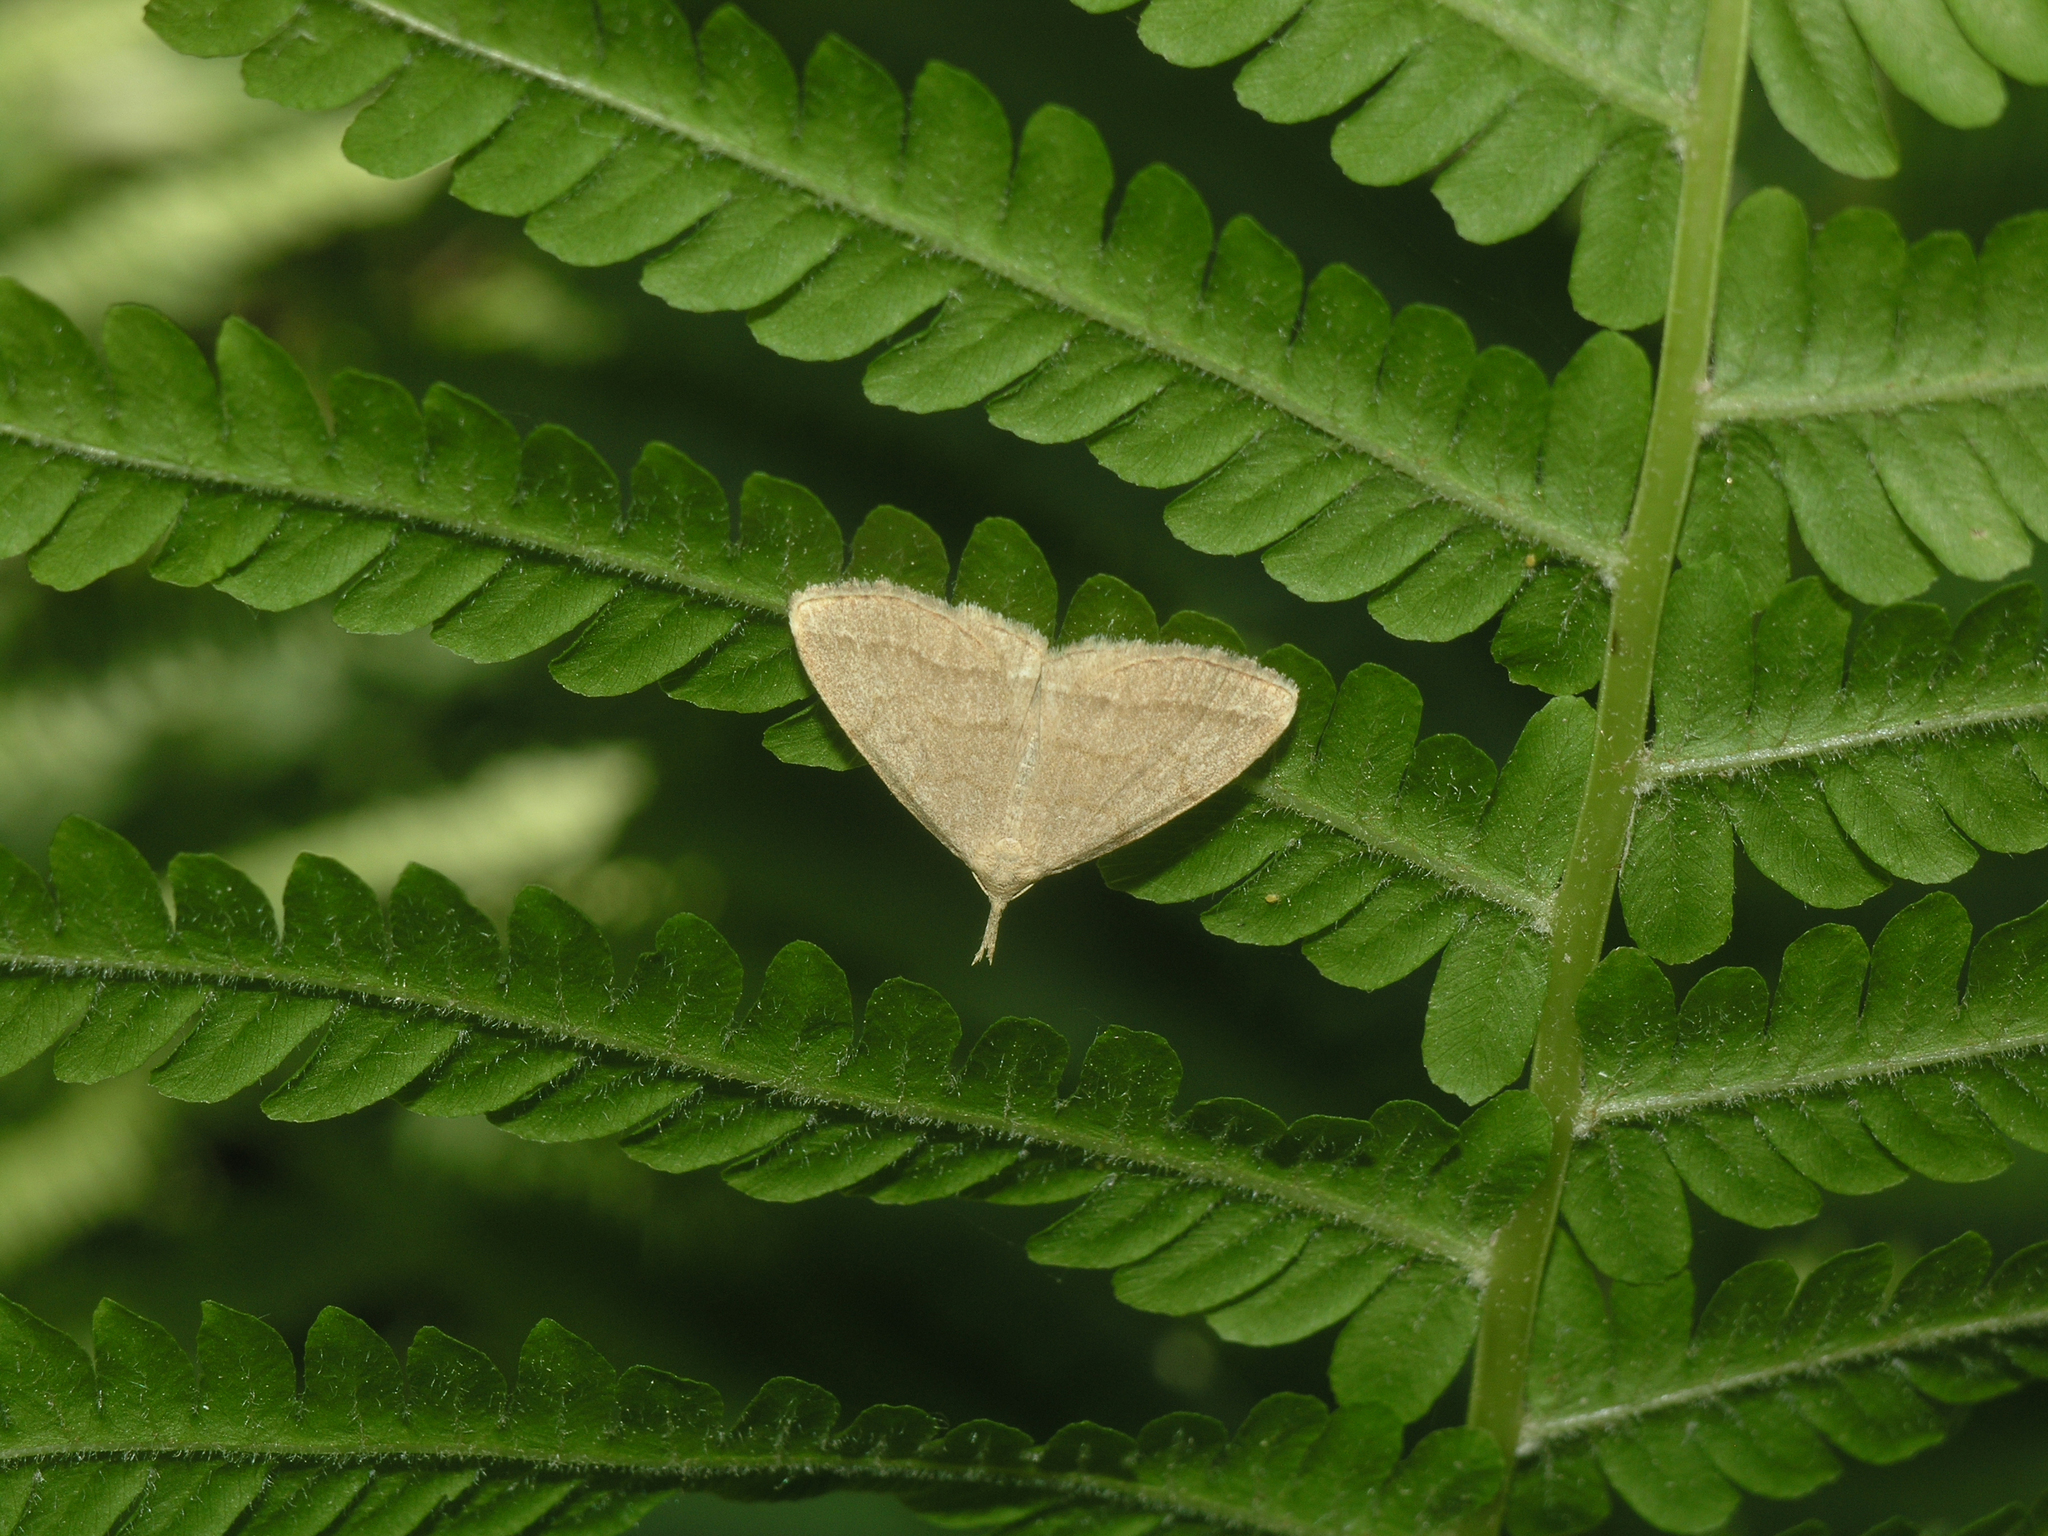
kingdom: Animalia
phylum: Arthropoda
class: Insecta
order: Lepidoptera
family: Erebidae
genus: Pechipogo
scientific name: Pechipogo strigilata
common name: Common fan-foot
